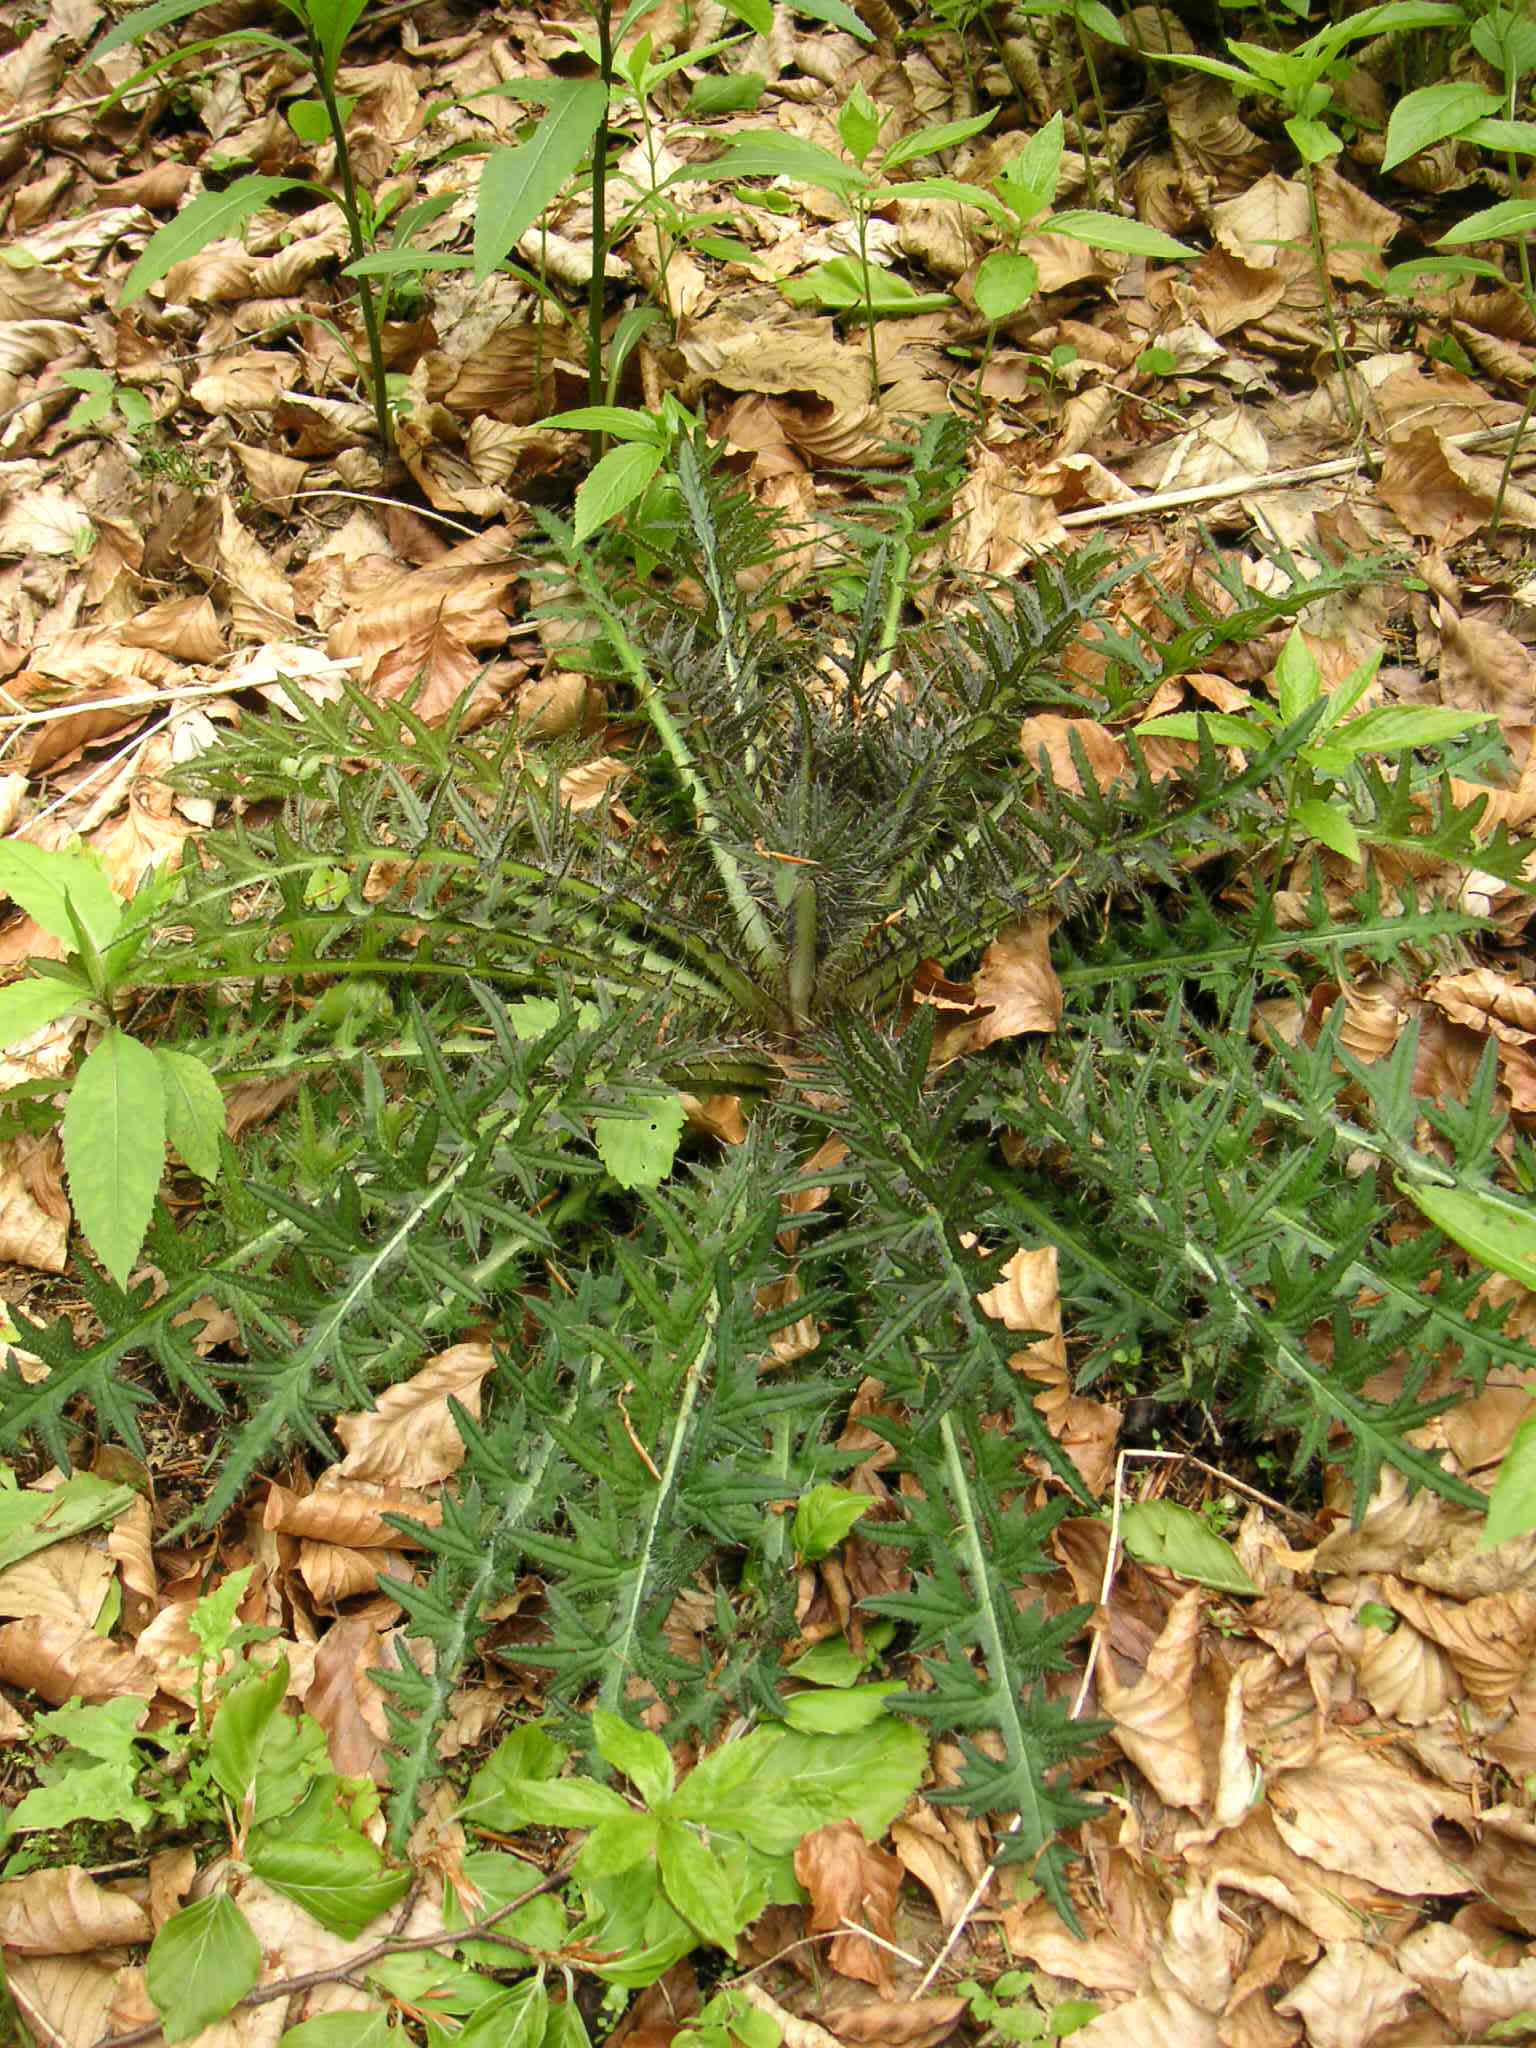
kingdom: Plantae
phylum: Tracheophyta
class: Magnoliopsida
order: Asterales
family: Asteraceae
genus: Cirsium
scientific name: Cirsium palustre
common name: Marsh thistle
